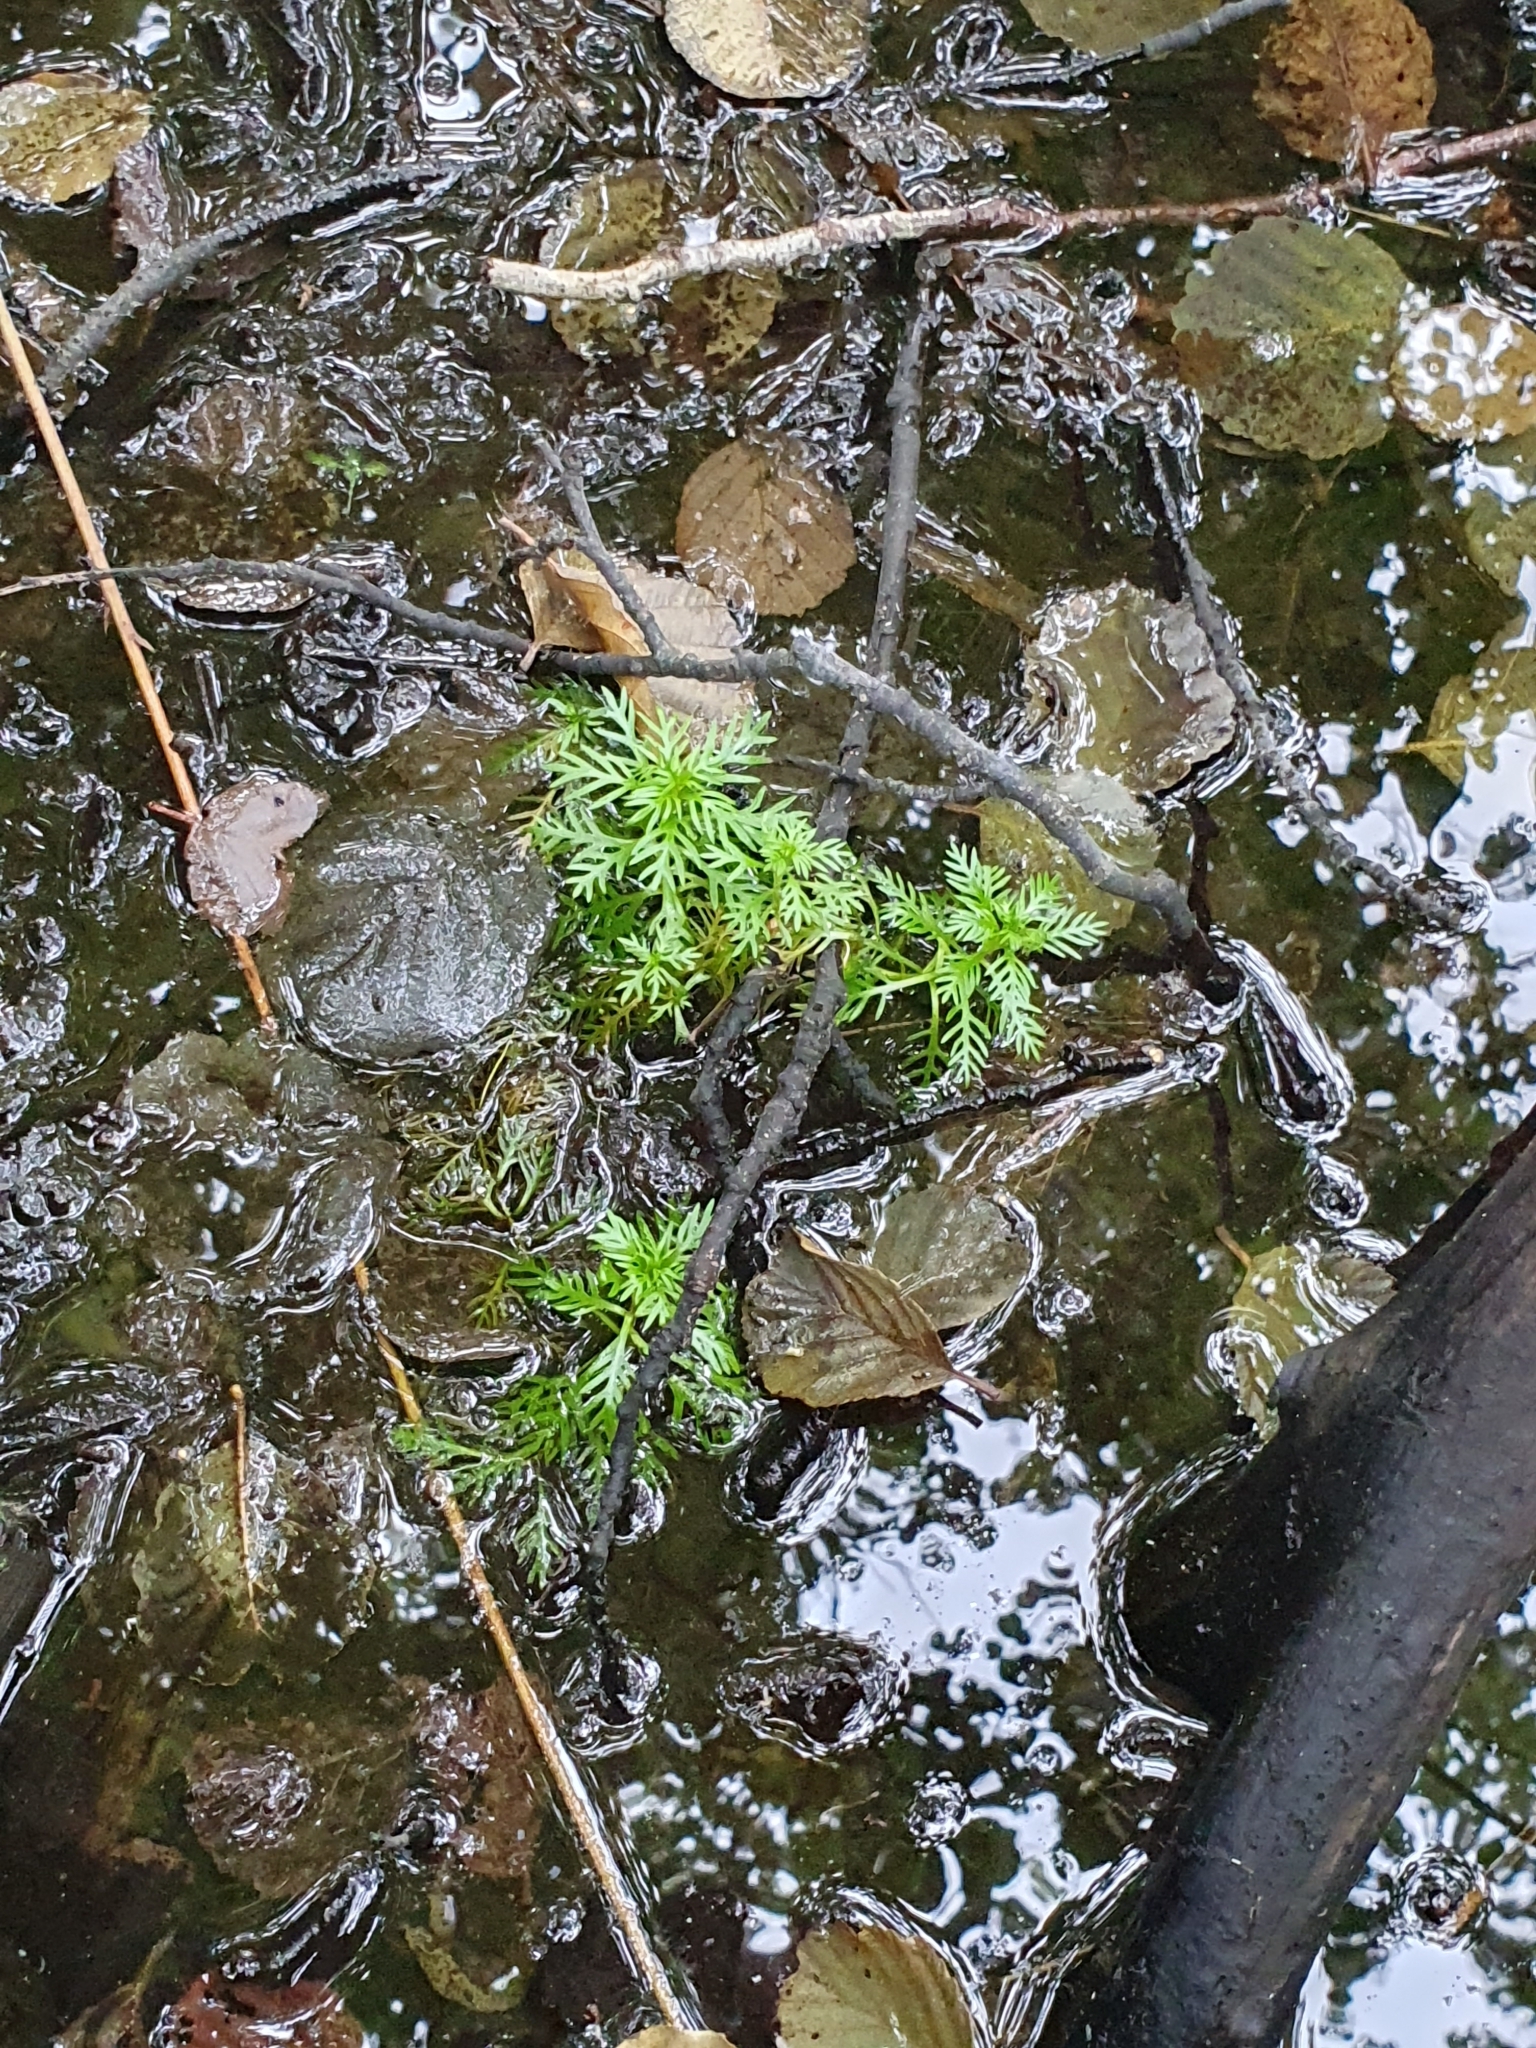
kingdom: Plantae
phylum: Tracheophyta
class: Magnoliopsida
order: Ericales
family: Primulaceae
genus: Hottonia
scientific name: Hottonia palustris
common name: Water-violet
